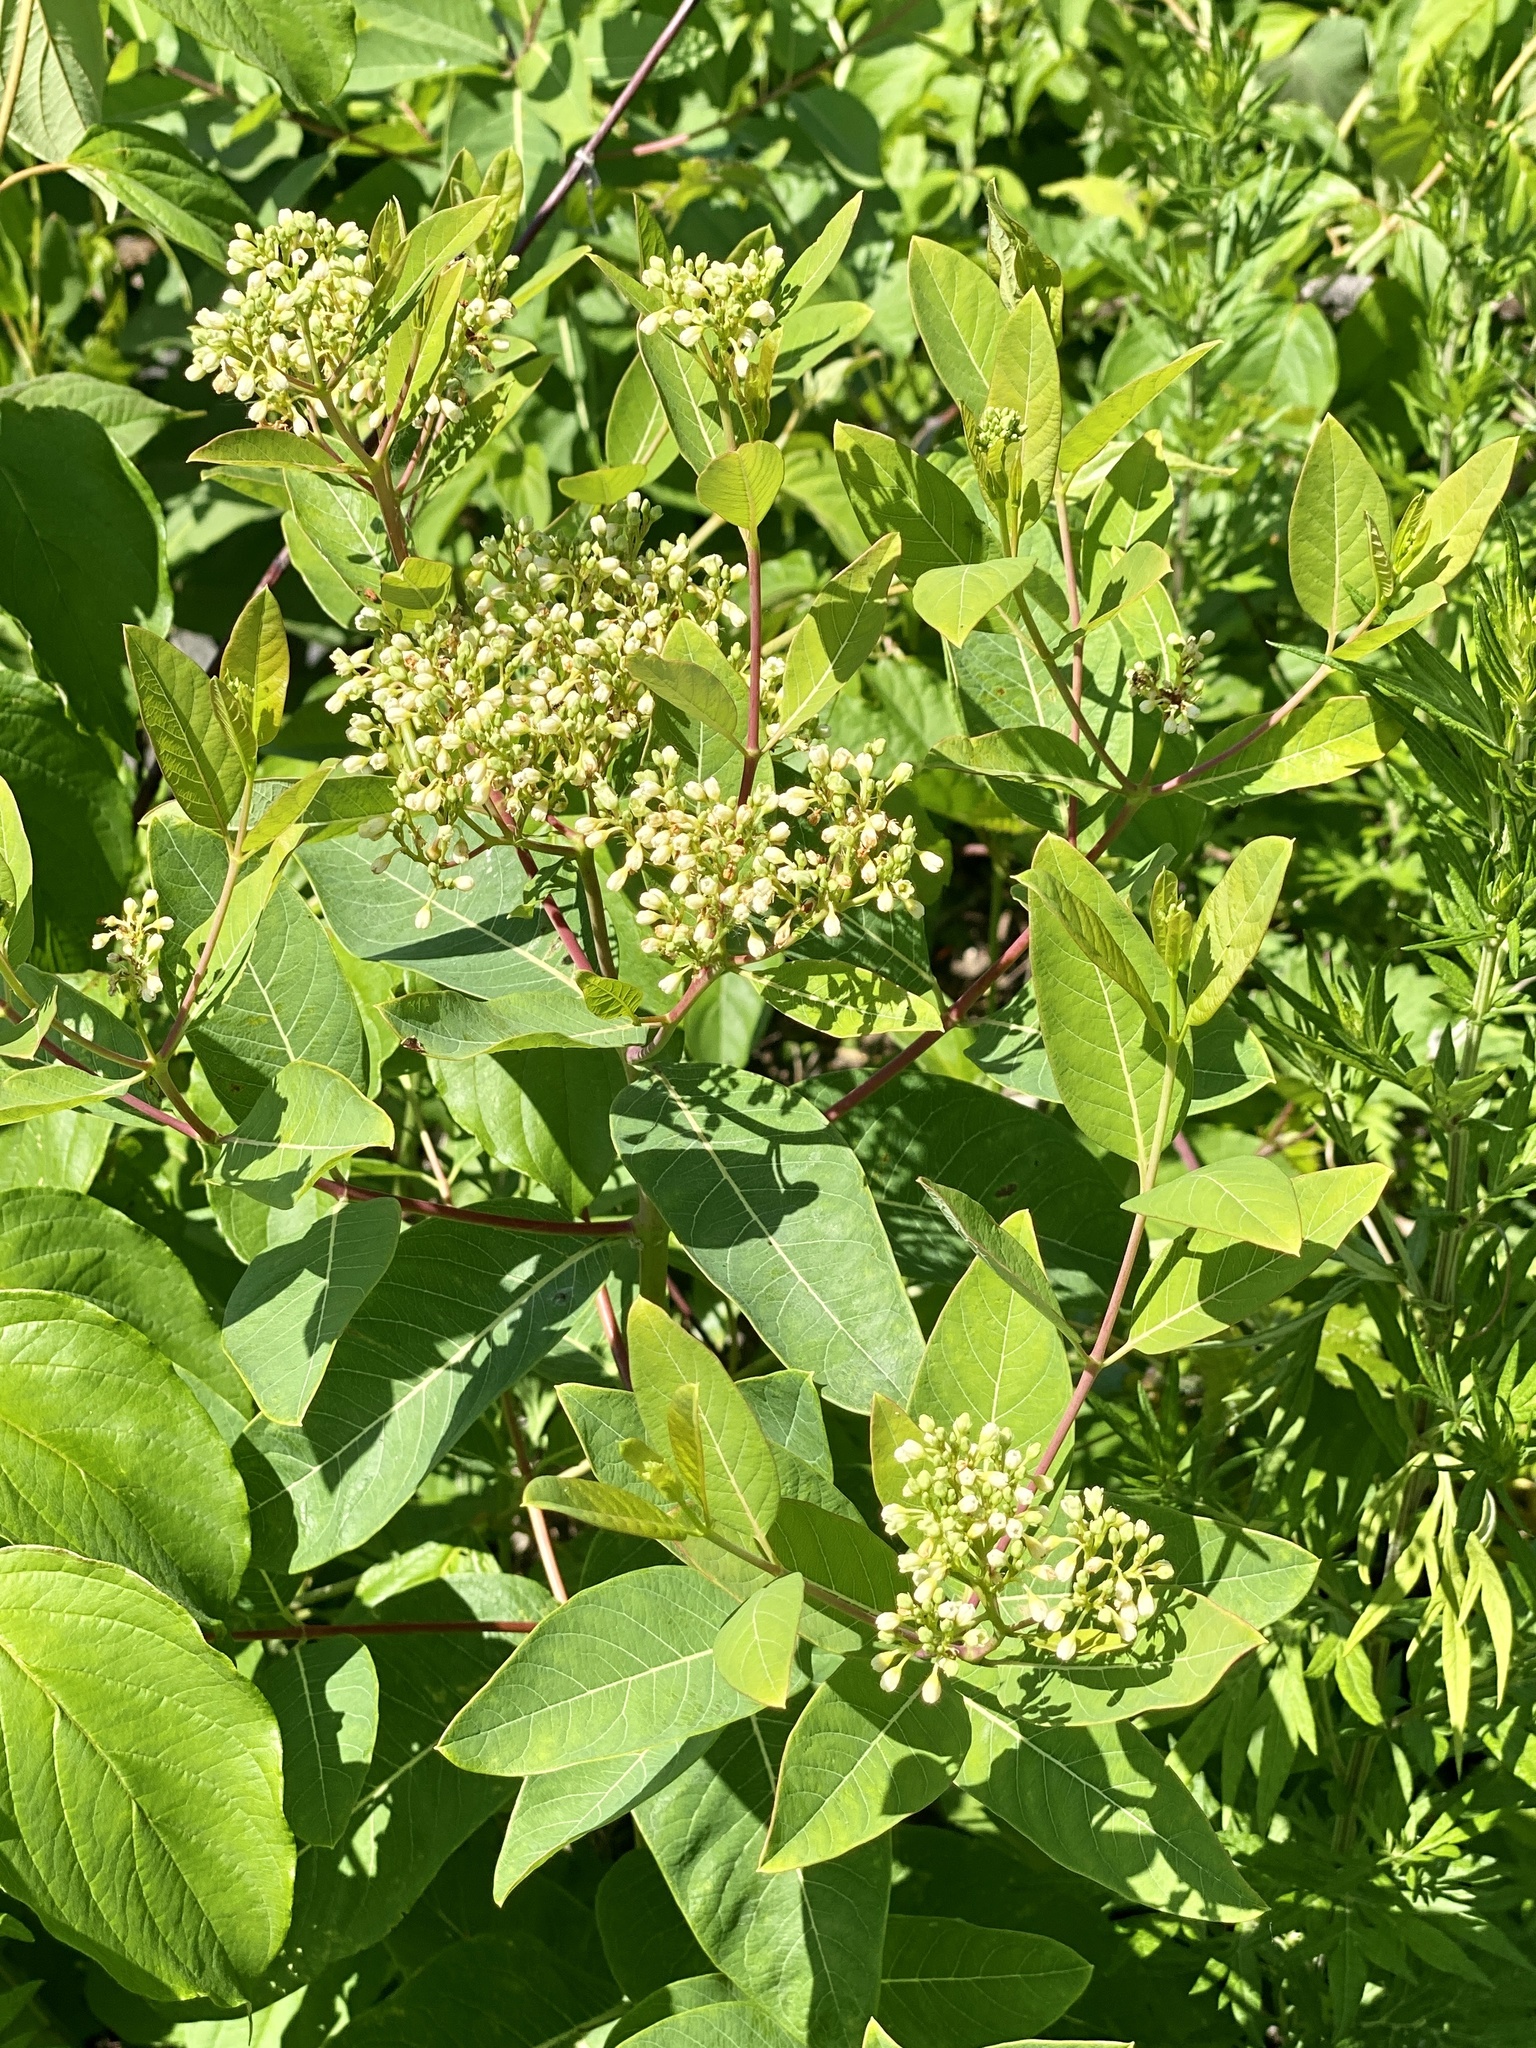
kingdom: Plantae
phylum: Tracheophyta
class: Magnoliopsida
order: Gentianales
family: Apocynaceae
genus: Apocynum
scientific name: Apocynum cannabinum
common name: Hemp dogbane
